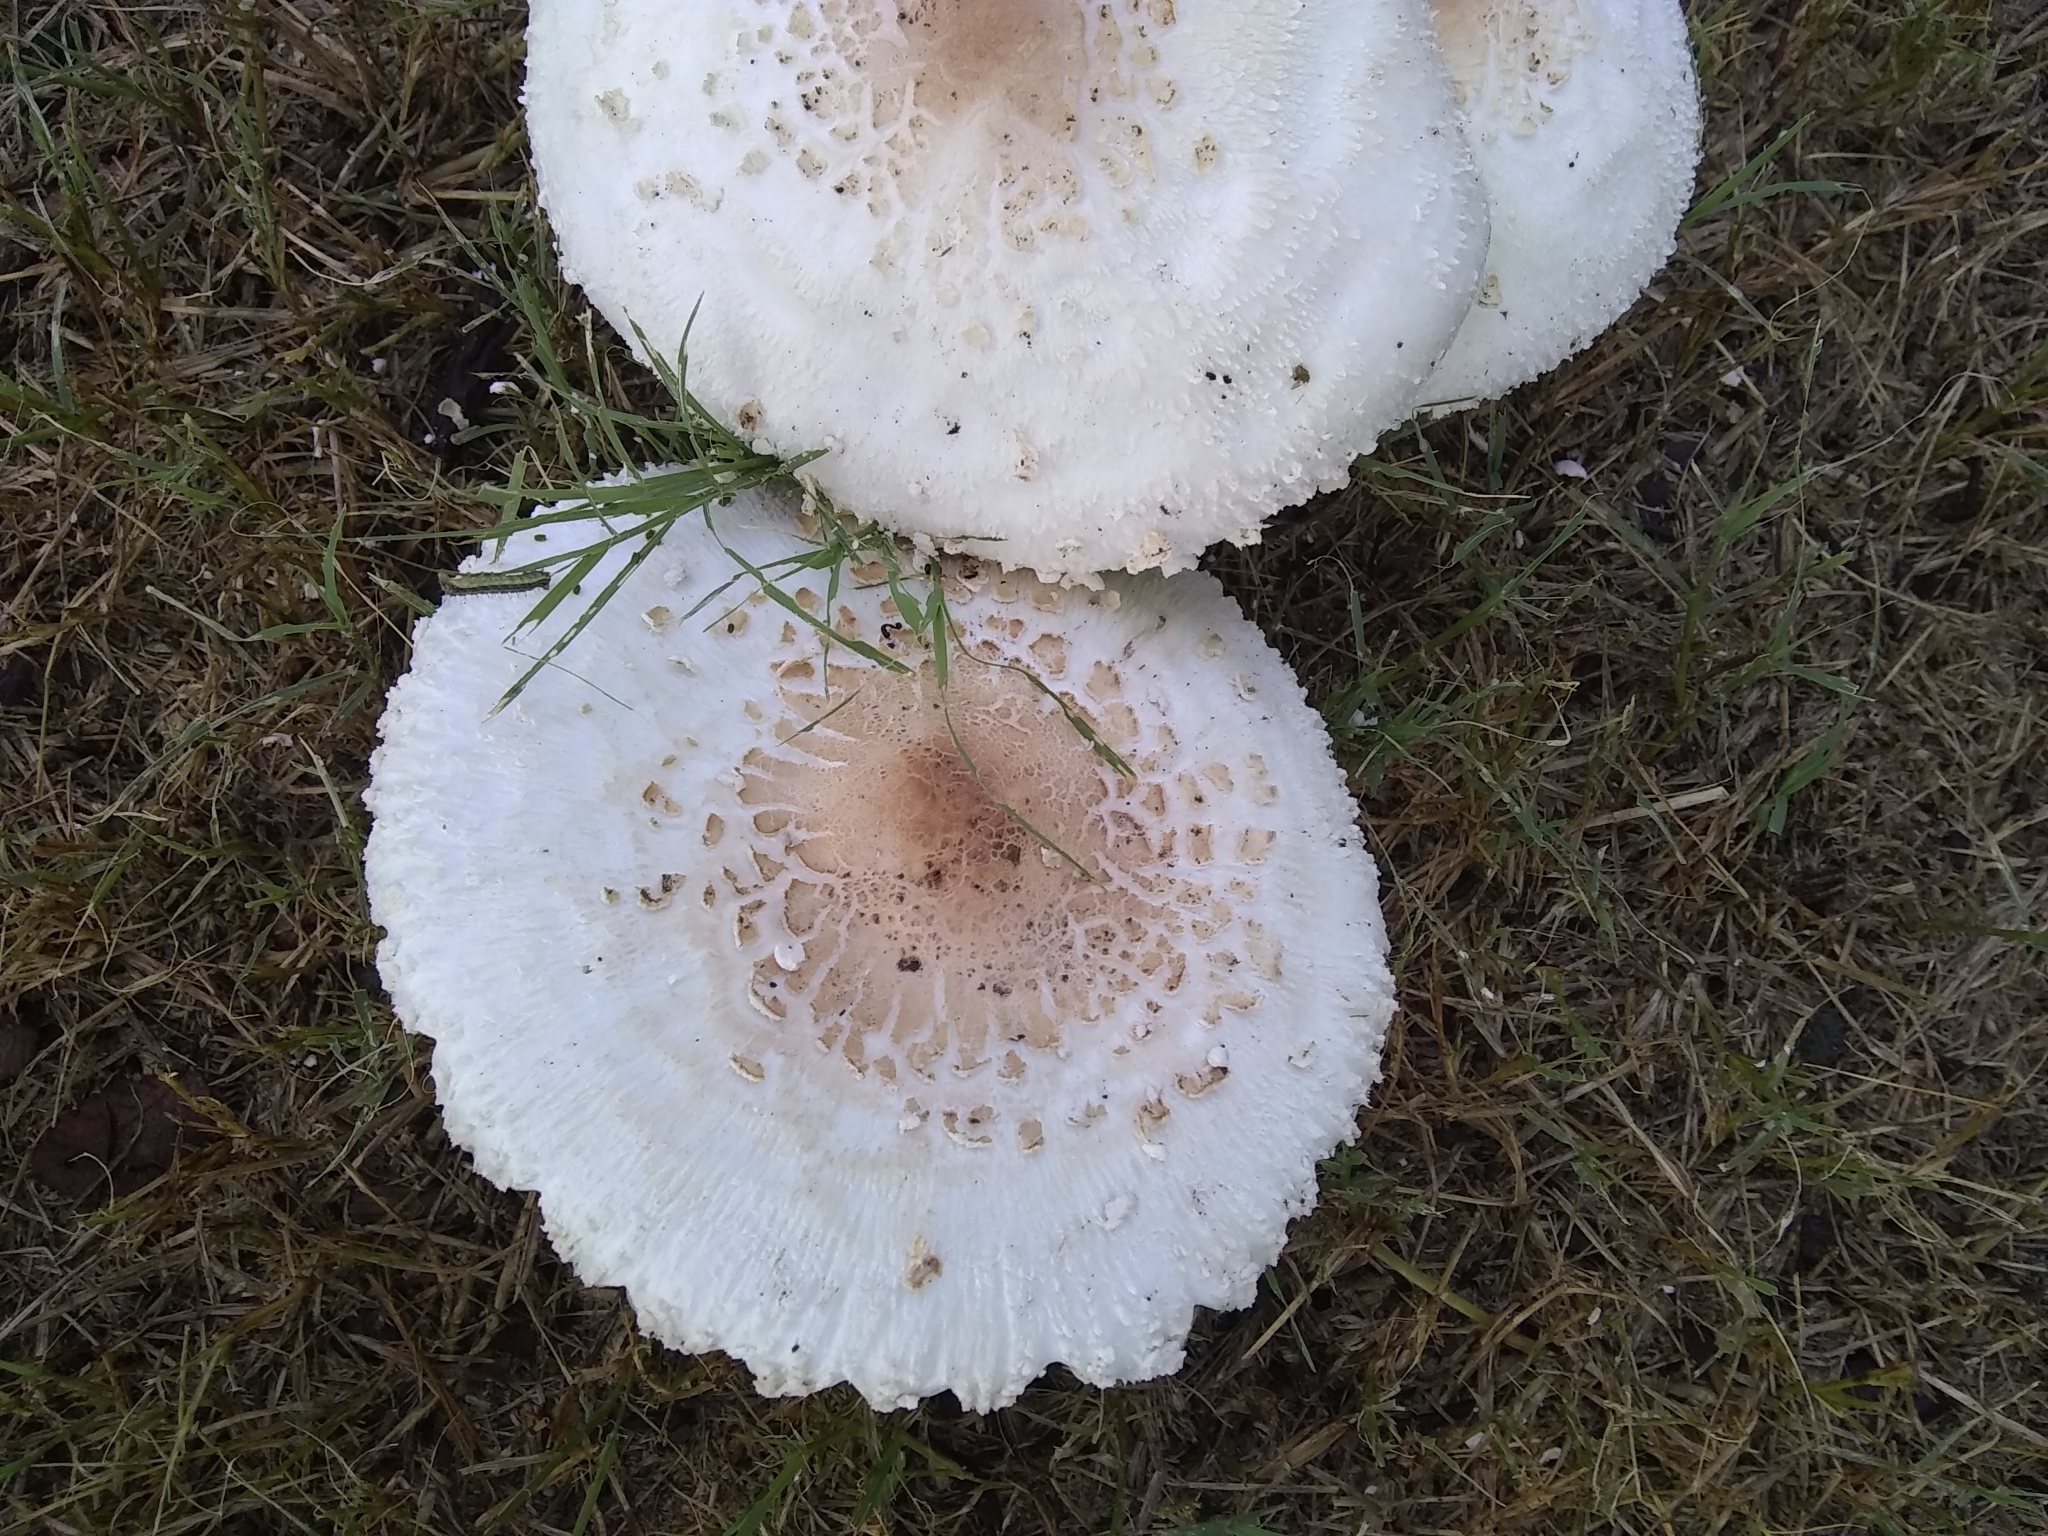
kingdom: Fungi
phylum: Basidiomycota
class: Agaricomycetes
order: Agaricales
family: Agaricaceae
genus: Chlorophyllum
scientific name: Chlorophyllum molybdites
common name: False parasol
